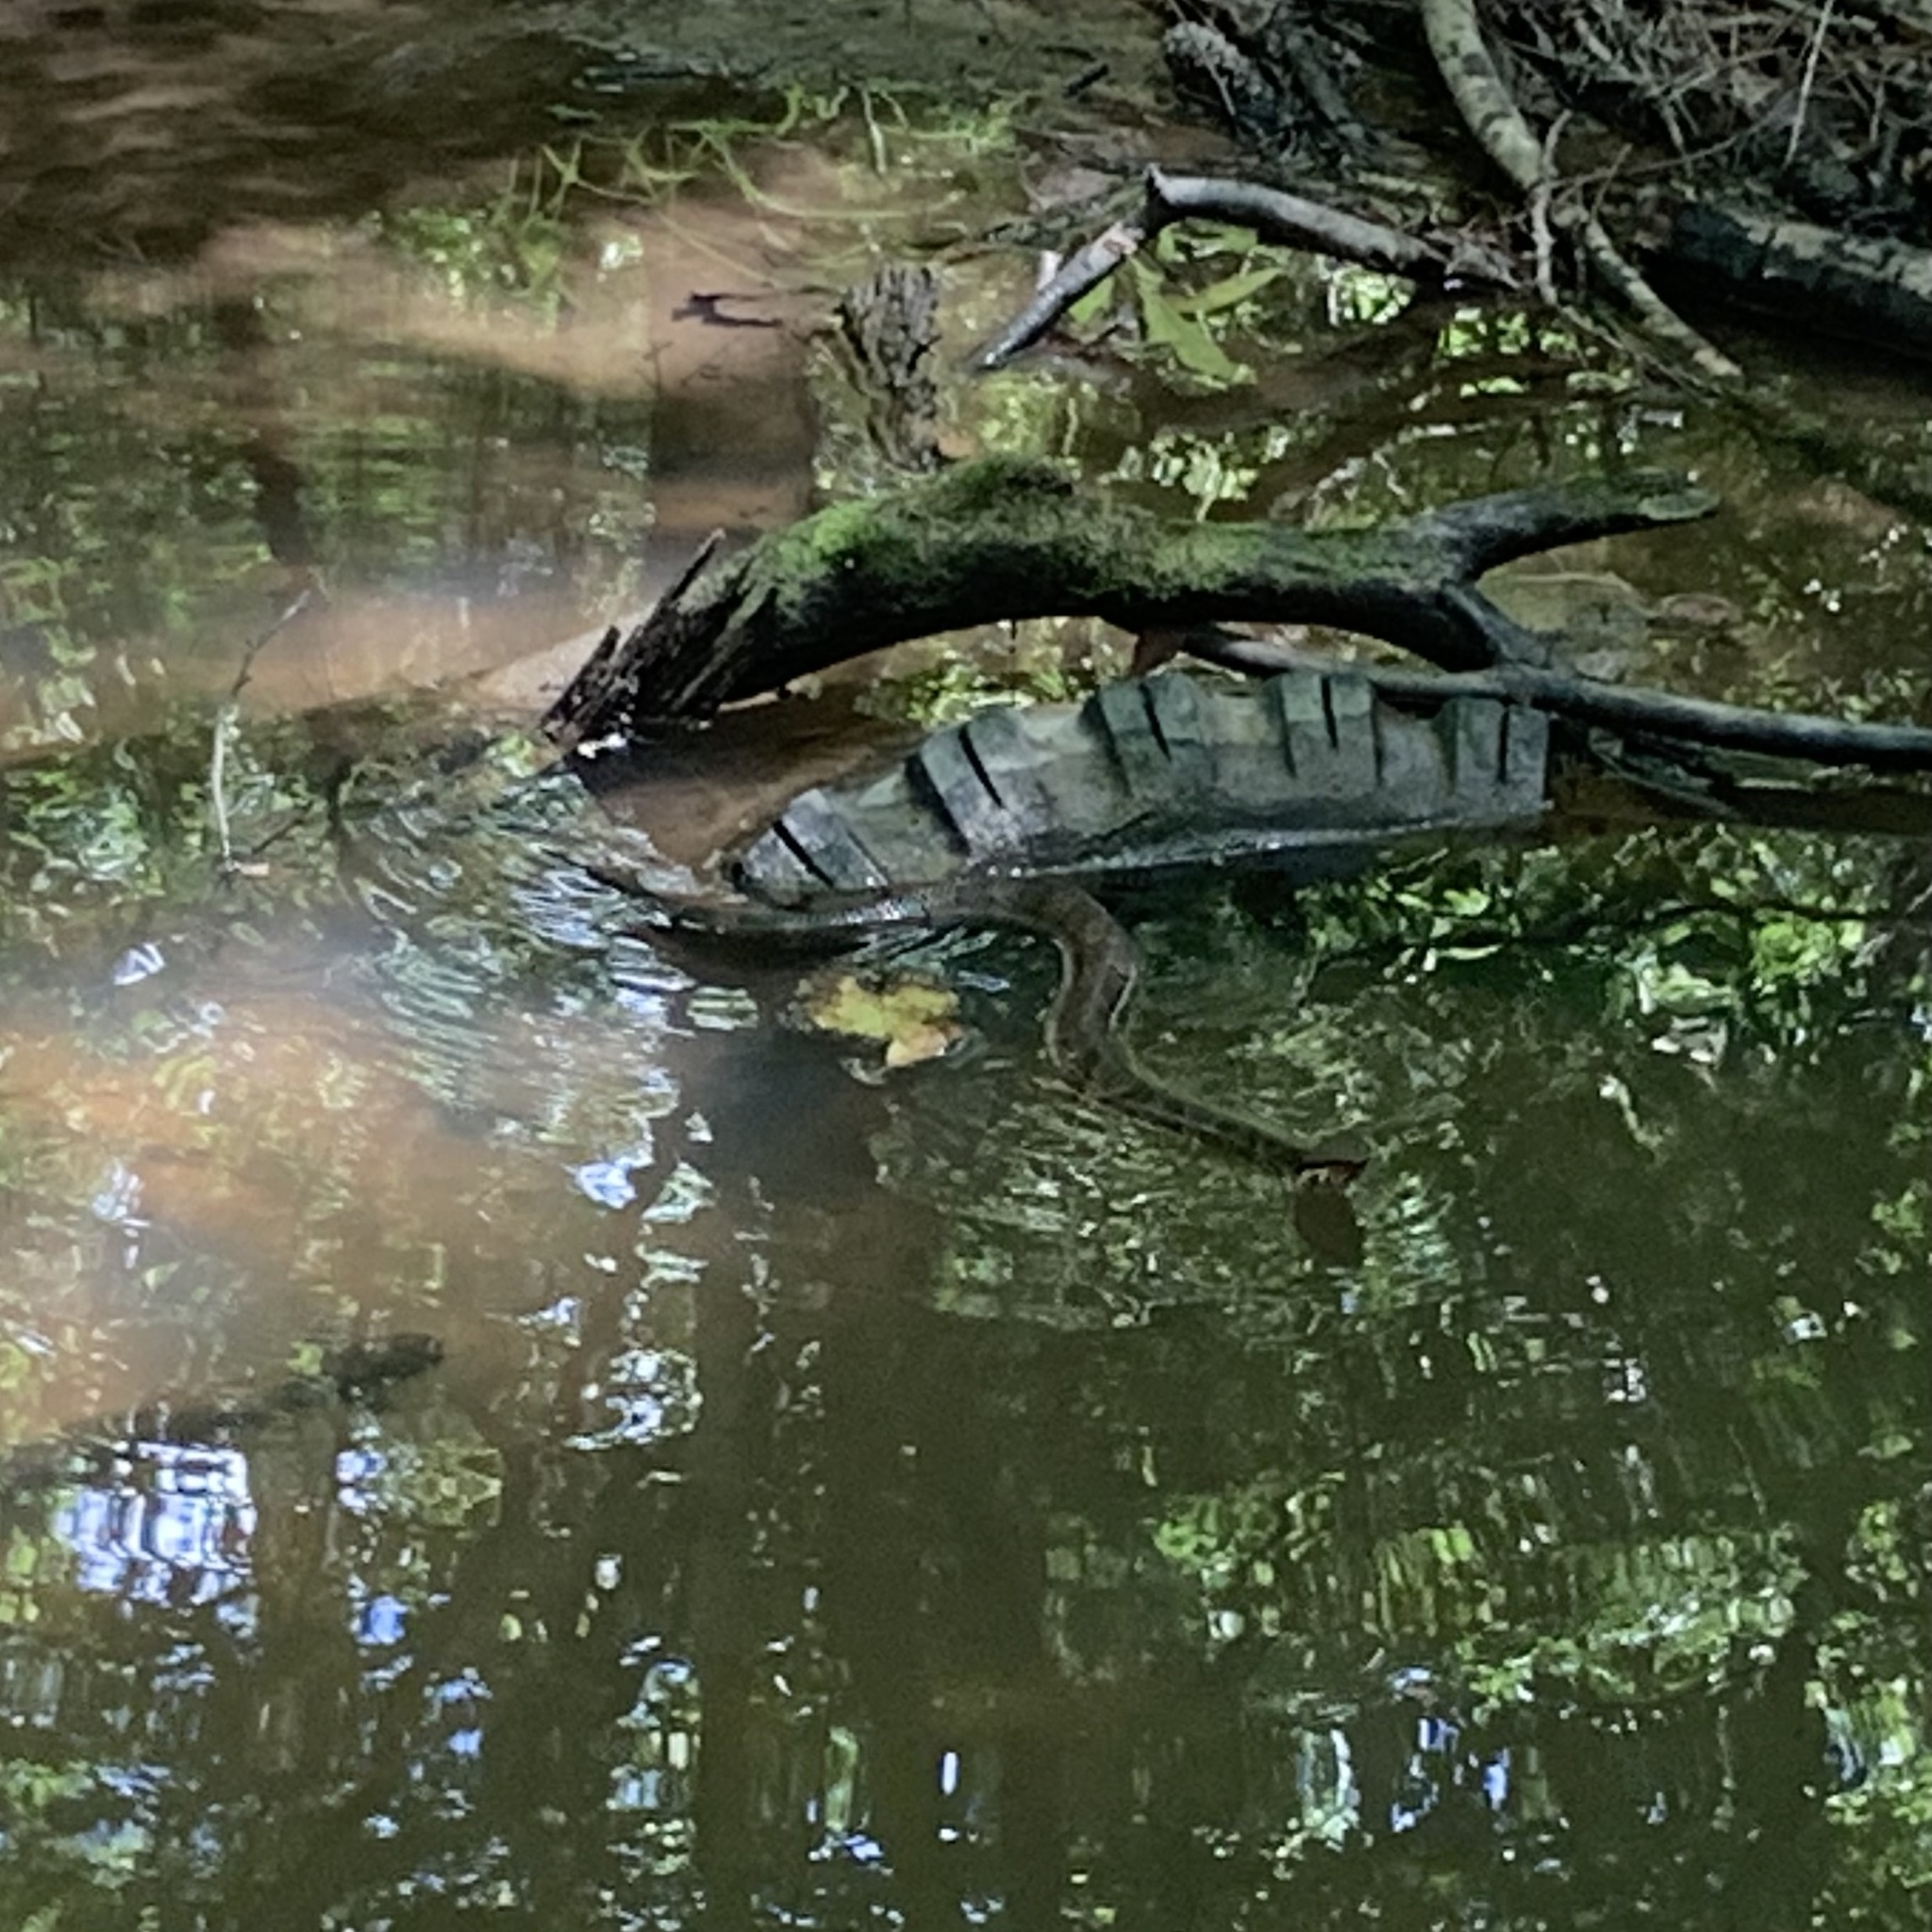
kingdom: Animalia
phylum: Chordata
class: Squamata
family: Viperidae
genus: Agkistrodon
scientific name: Agkistrodon piscivorus
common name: Cottonmouth
